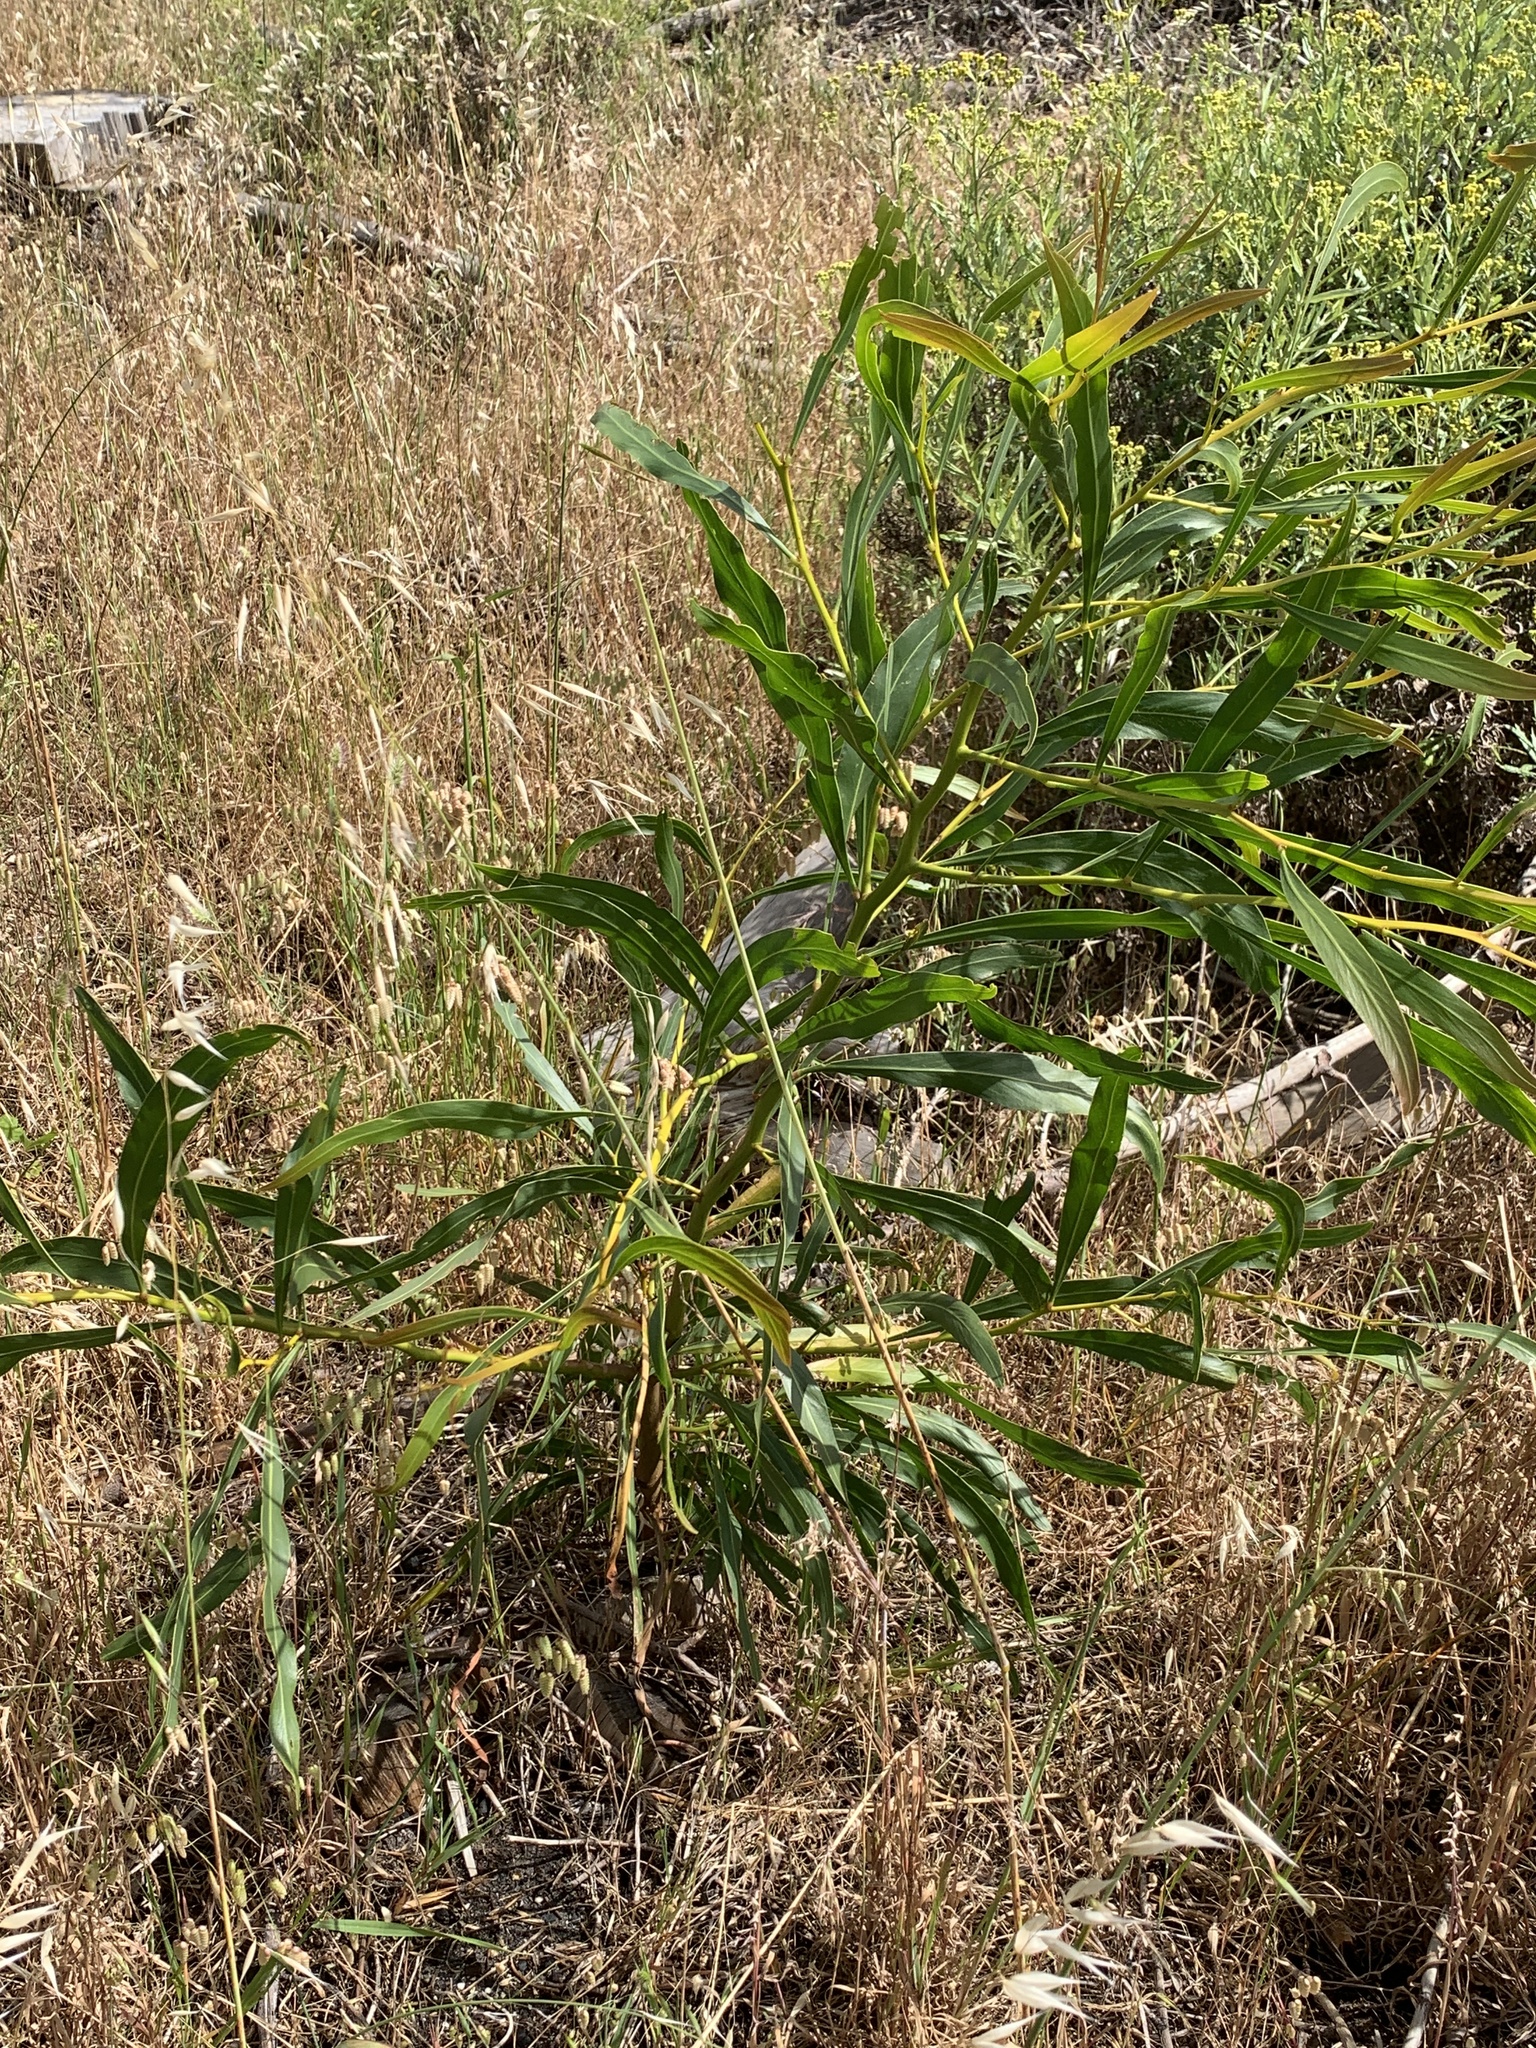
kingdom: Plantae
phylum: Tracheophyta
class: Magnoliopsida
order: Fabales
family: Fabaceae
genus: Acacia
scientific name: Acacia saligna
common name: Orange wattle
